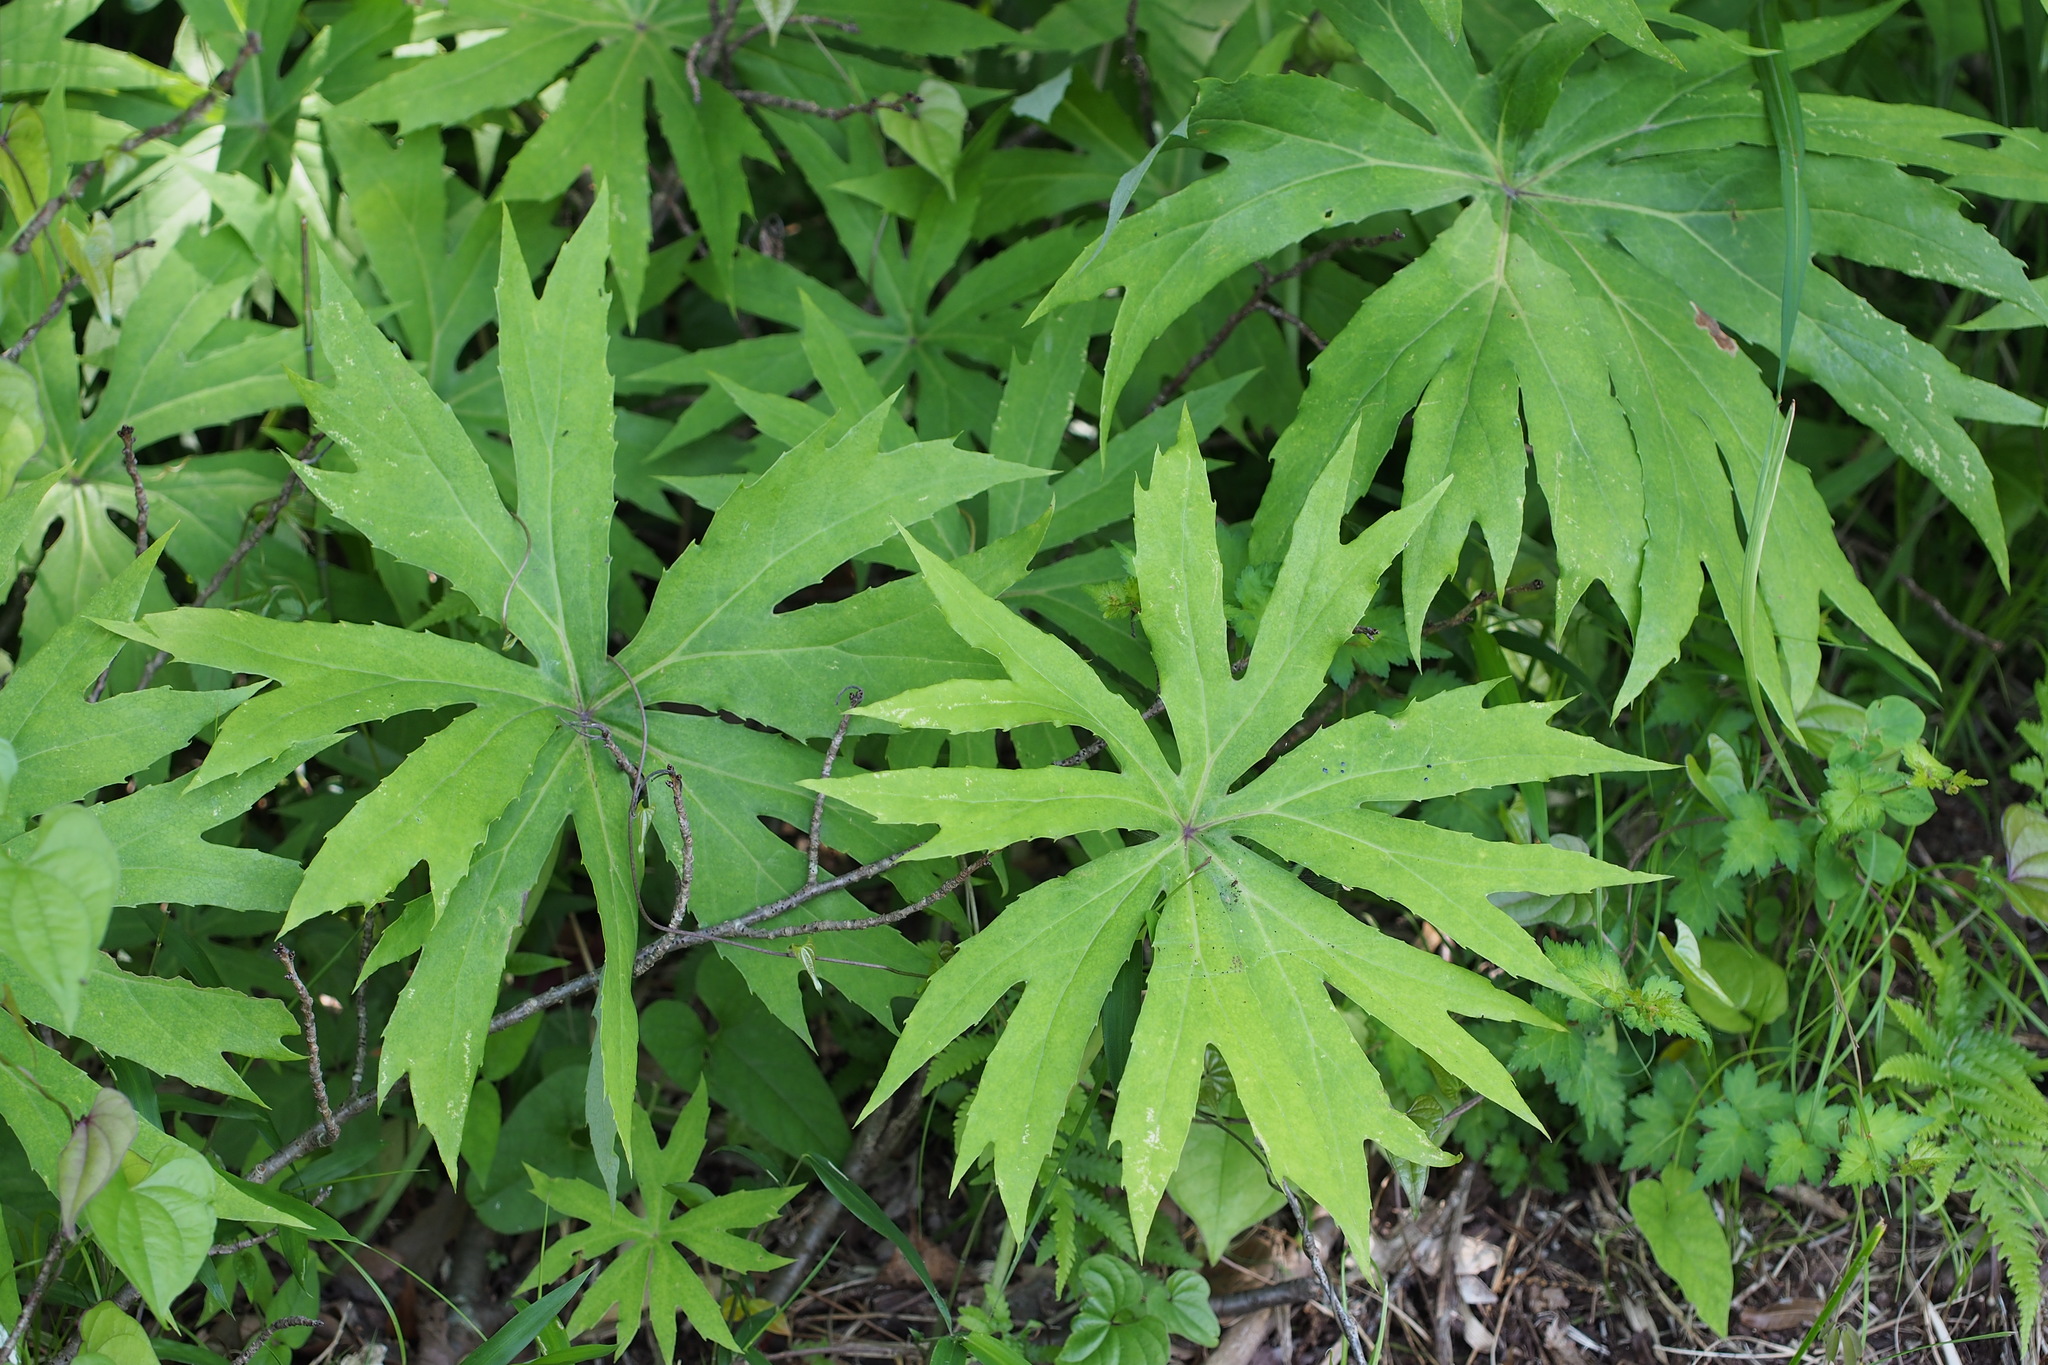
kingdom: Plantae
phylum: Tracheophyta
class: Magnoliopsida
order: Asterales
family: Asteraceae
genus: Syneilesis
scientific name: Syneilesis palmata
